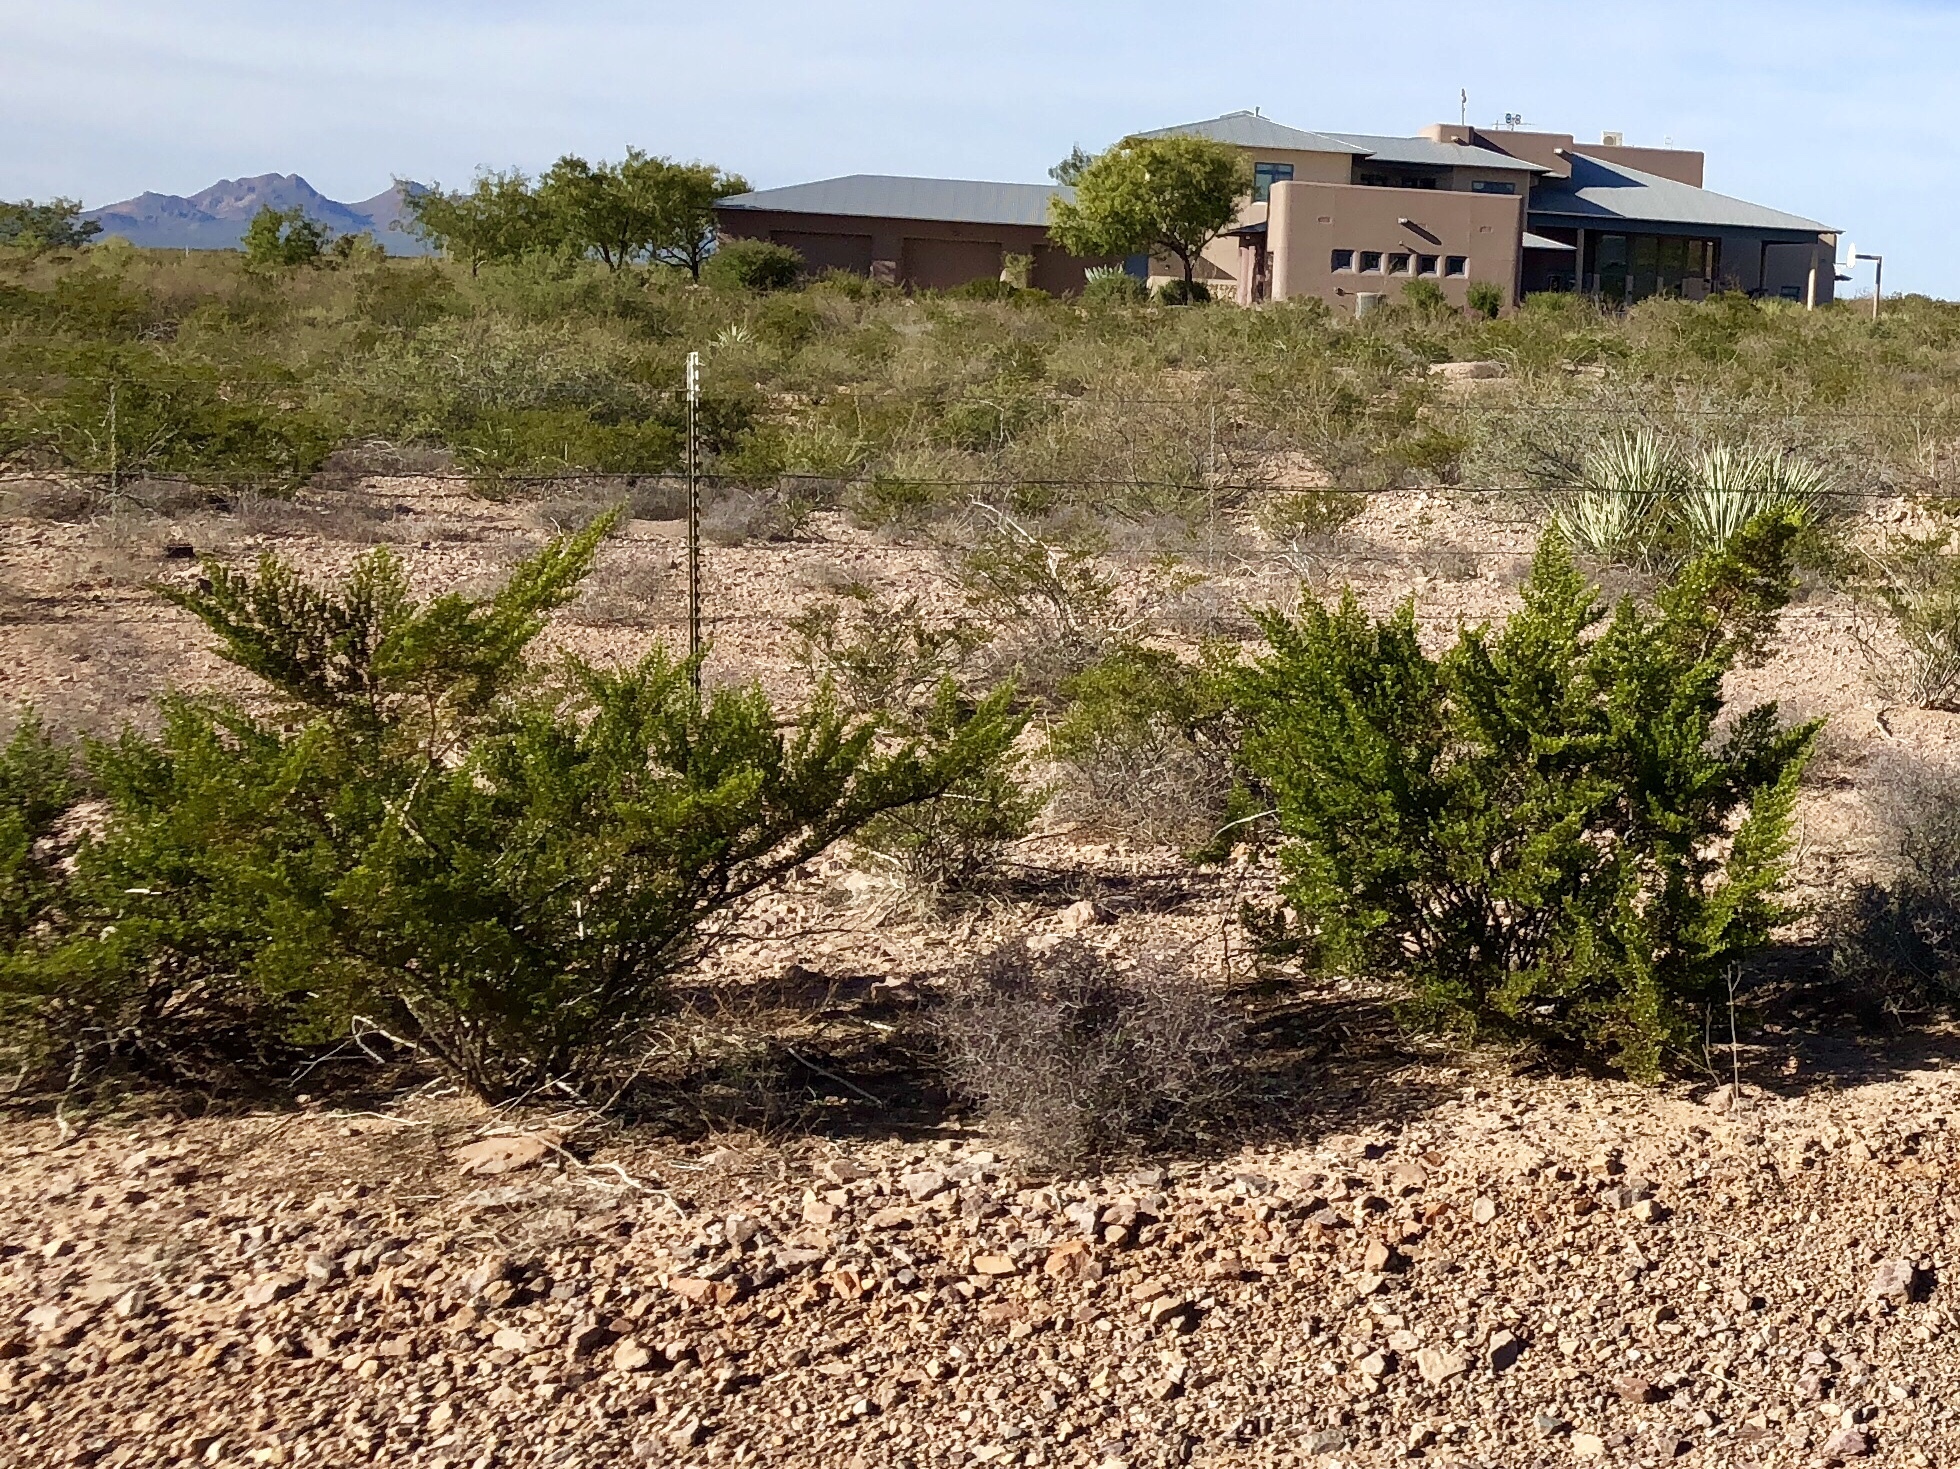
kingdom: Plantae
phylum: Tracheophyta
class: Magnoliopsida
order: Zygophyllales
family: Zygophyllaceae
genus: Larrea
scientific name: Larrea tridentata
